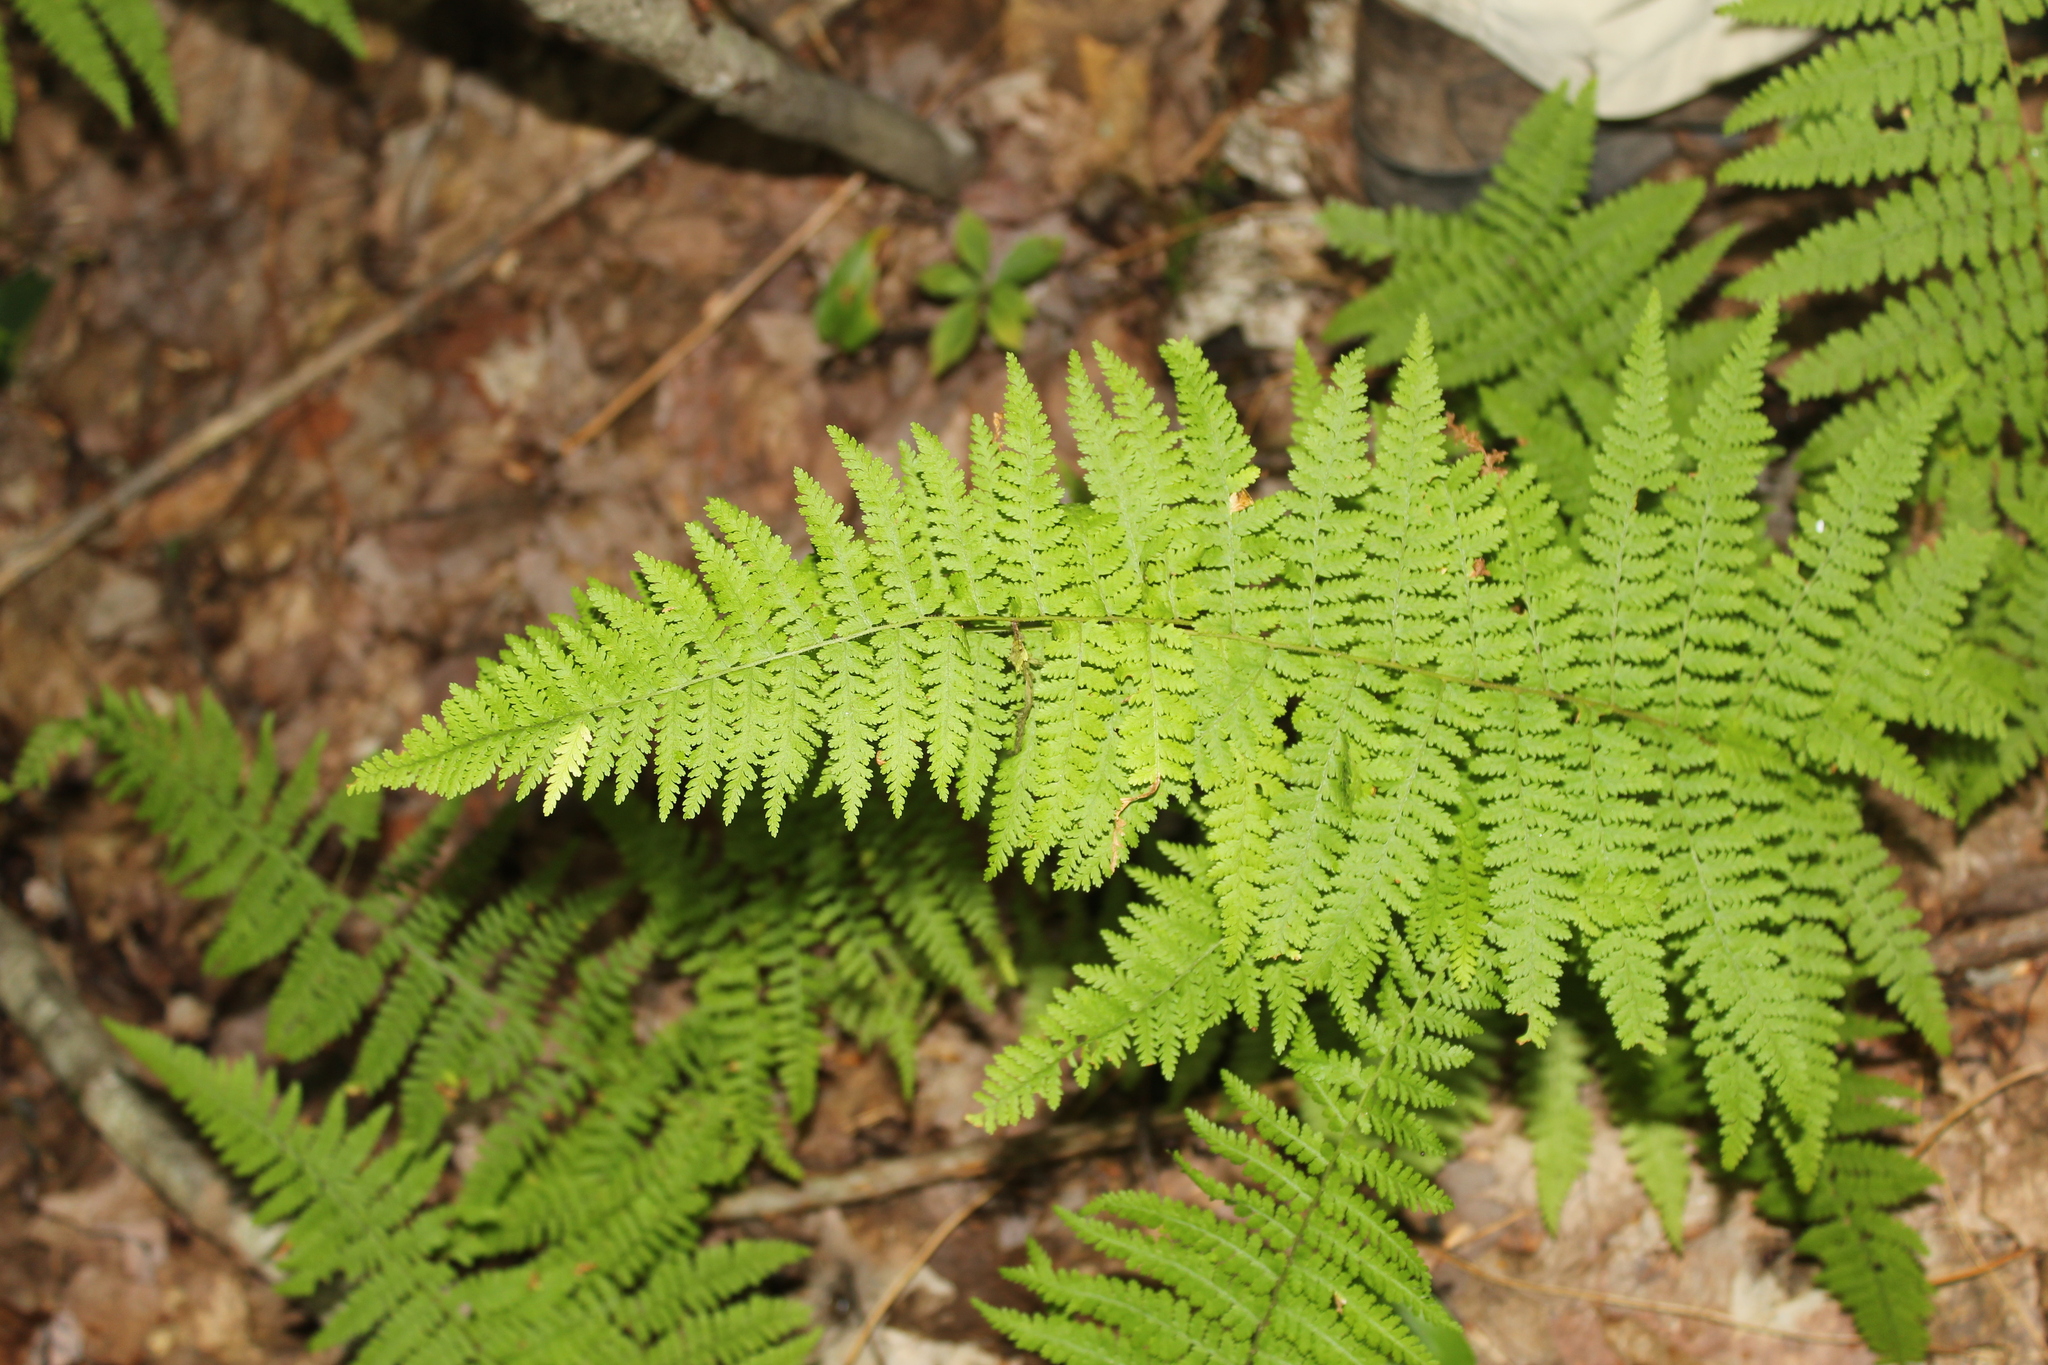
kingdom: Plantae
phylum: Tracheophyta
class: Polypodiopsida
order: Polypodiales
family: Dennstaedtiaceae
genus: Sitobolium
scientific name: Sitobolium punctilobum
